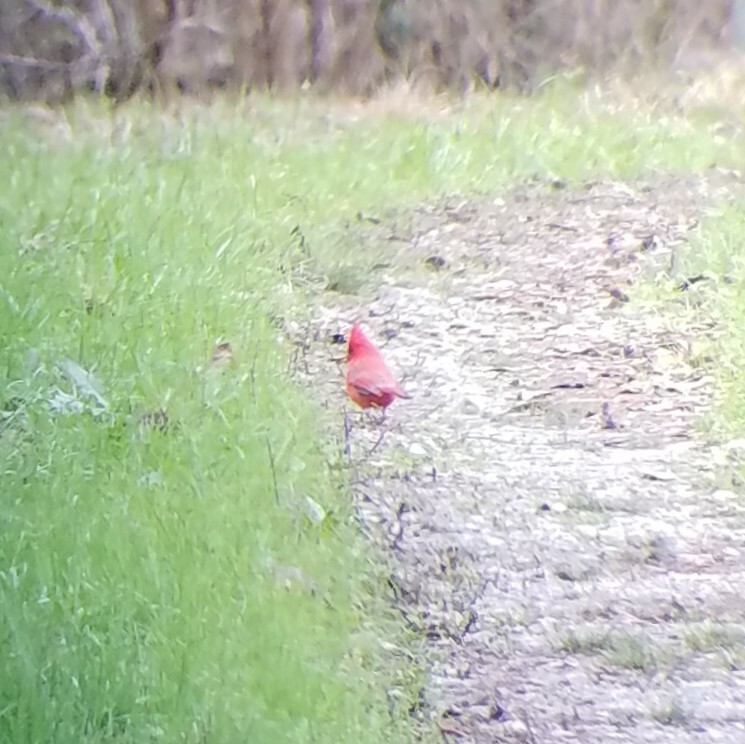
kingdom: Animalia
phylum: Chordata
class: Aves
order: Passeriformes
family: Cardinalidae
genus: Cardinalis
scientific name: Cardinalis cardinalis
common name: Northern cardinal
